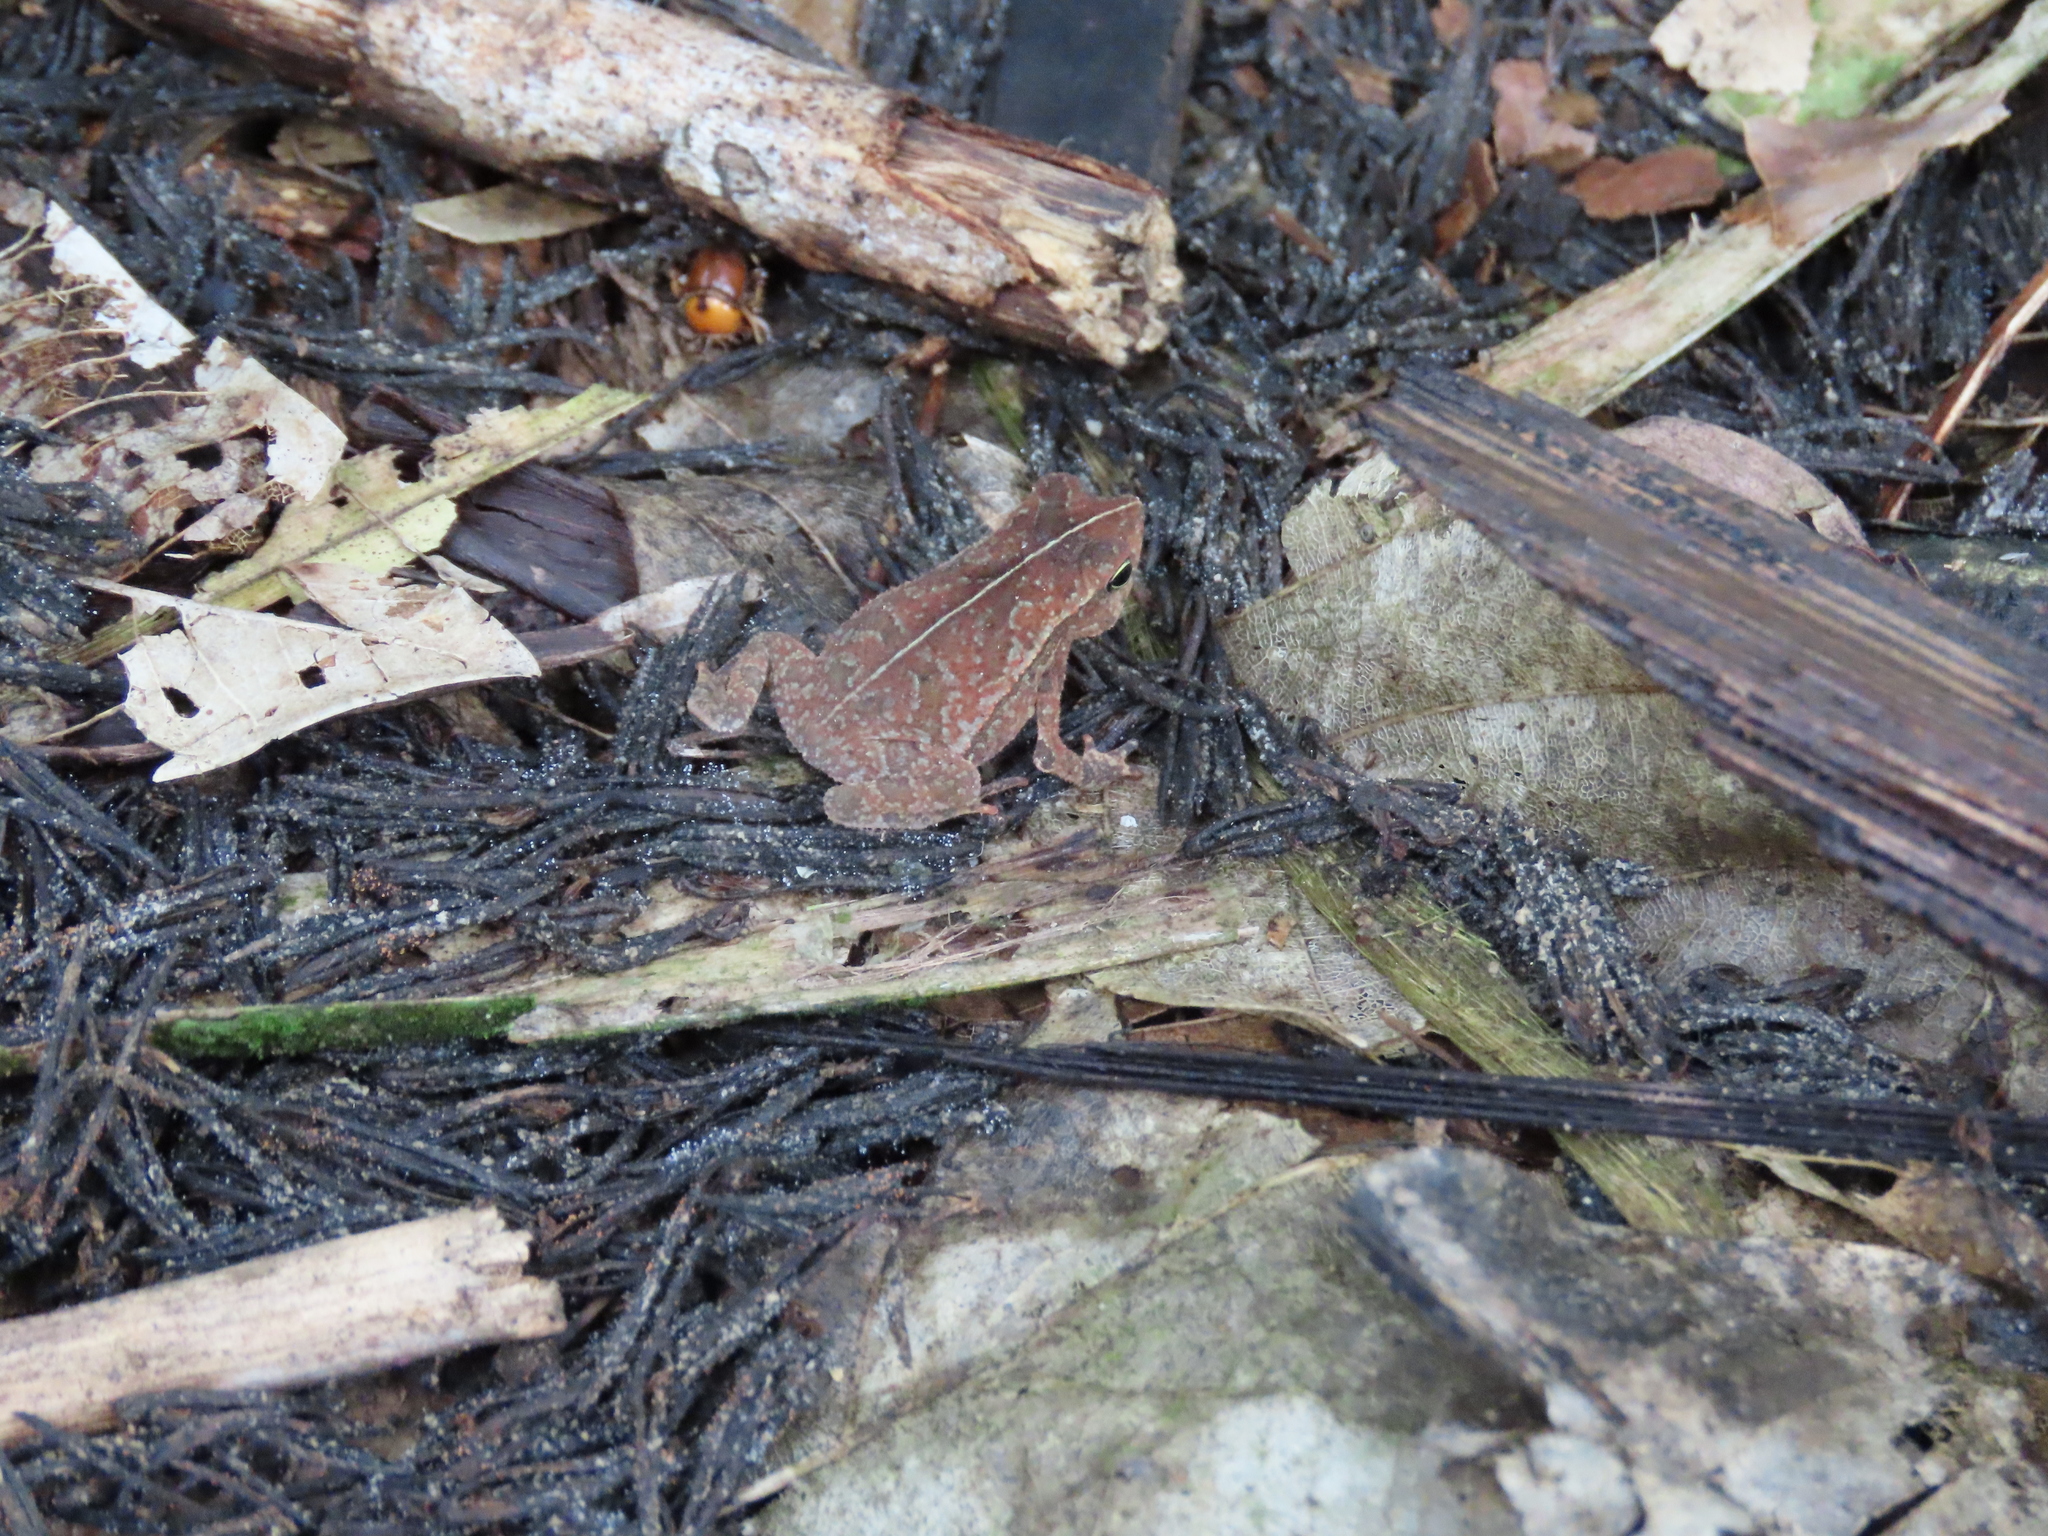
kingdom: Animalia
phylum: Chordata
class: Amphibia
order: Anura
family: Bufonidae
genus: Rhinella
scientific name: Rhinella alata
